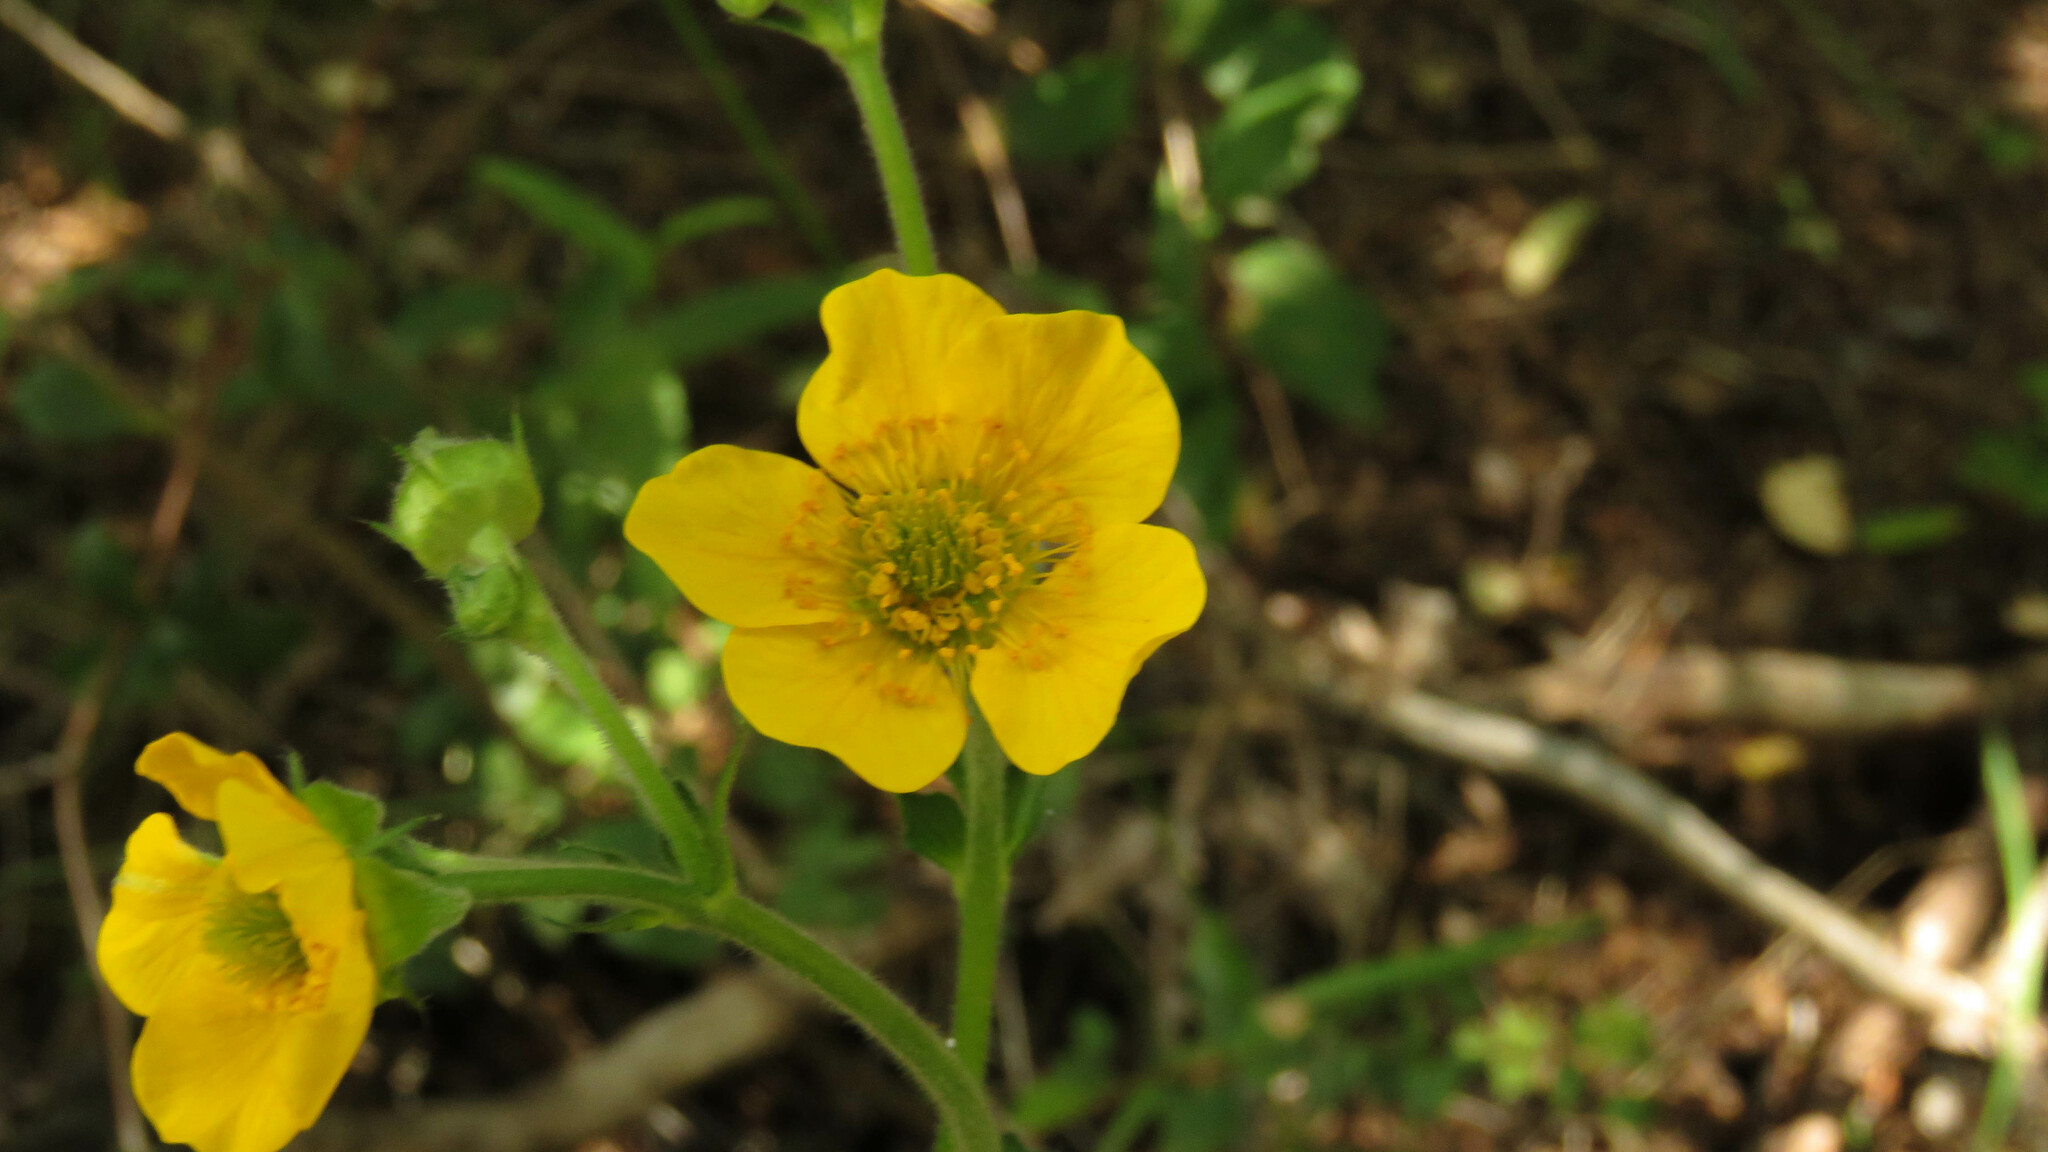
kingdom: Plantae
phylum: Tracheophyta
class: Magnoliopsida
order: Rosales
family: Rosaceae
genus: Geum
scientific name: Geum magellanicum
